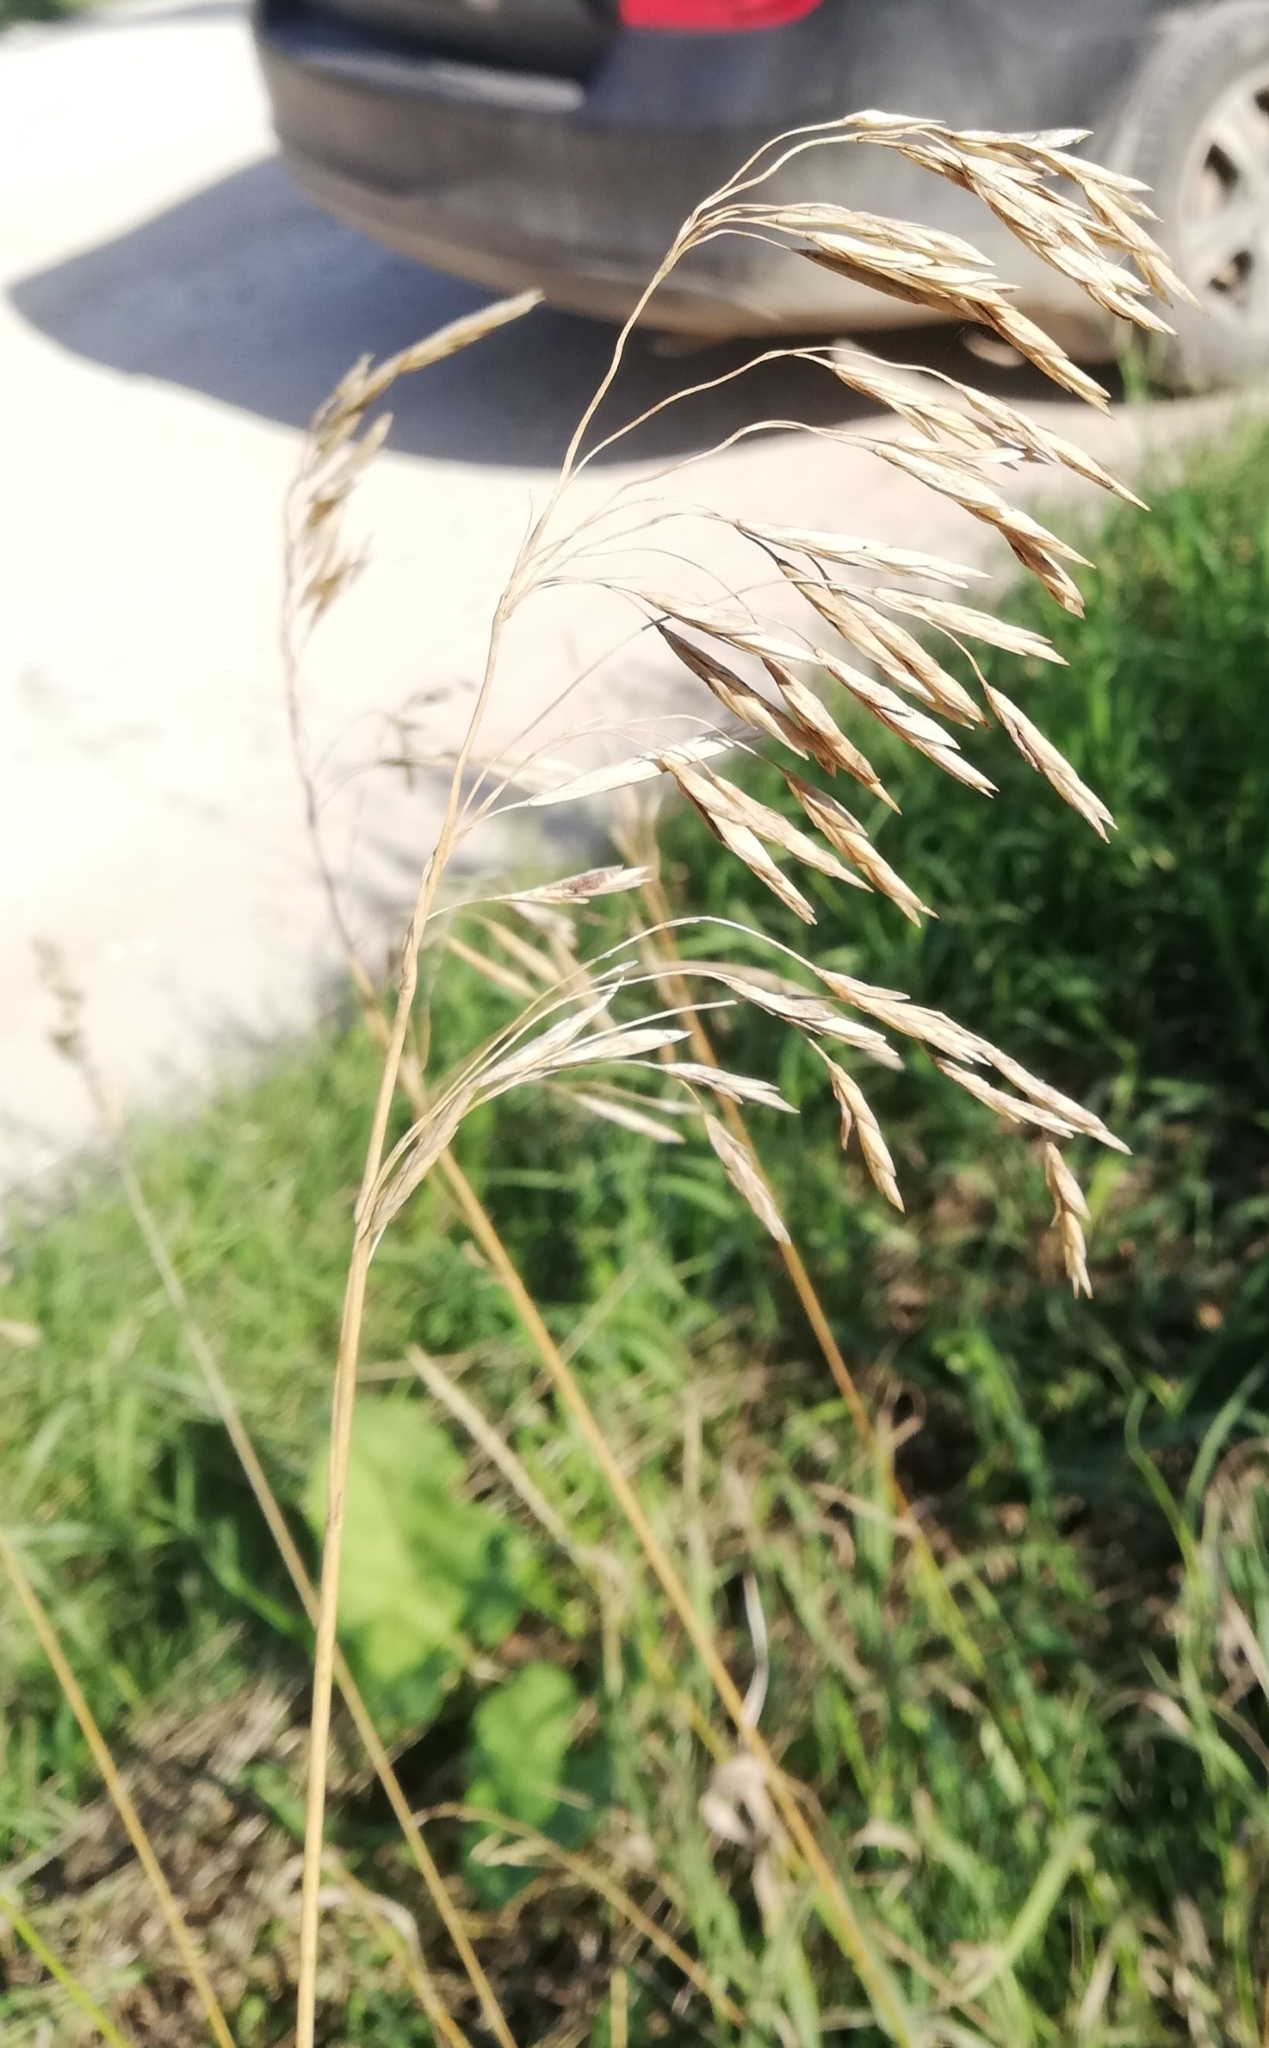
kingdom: Plantae
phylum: Tracheophyta
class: Liliopsida
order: Poales
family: Poaceae
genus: Bromus
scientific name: Bromus inermis
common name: Smooth brome
